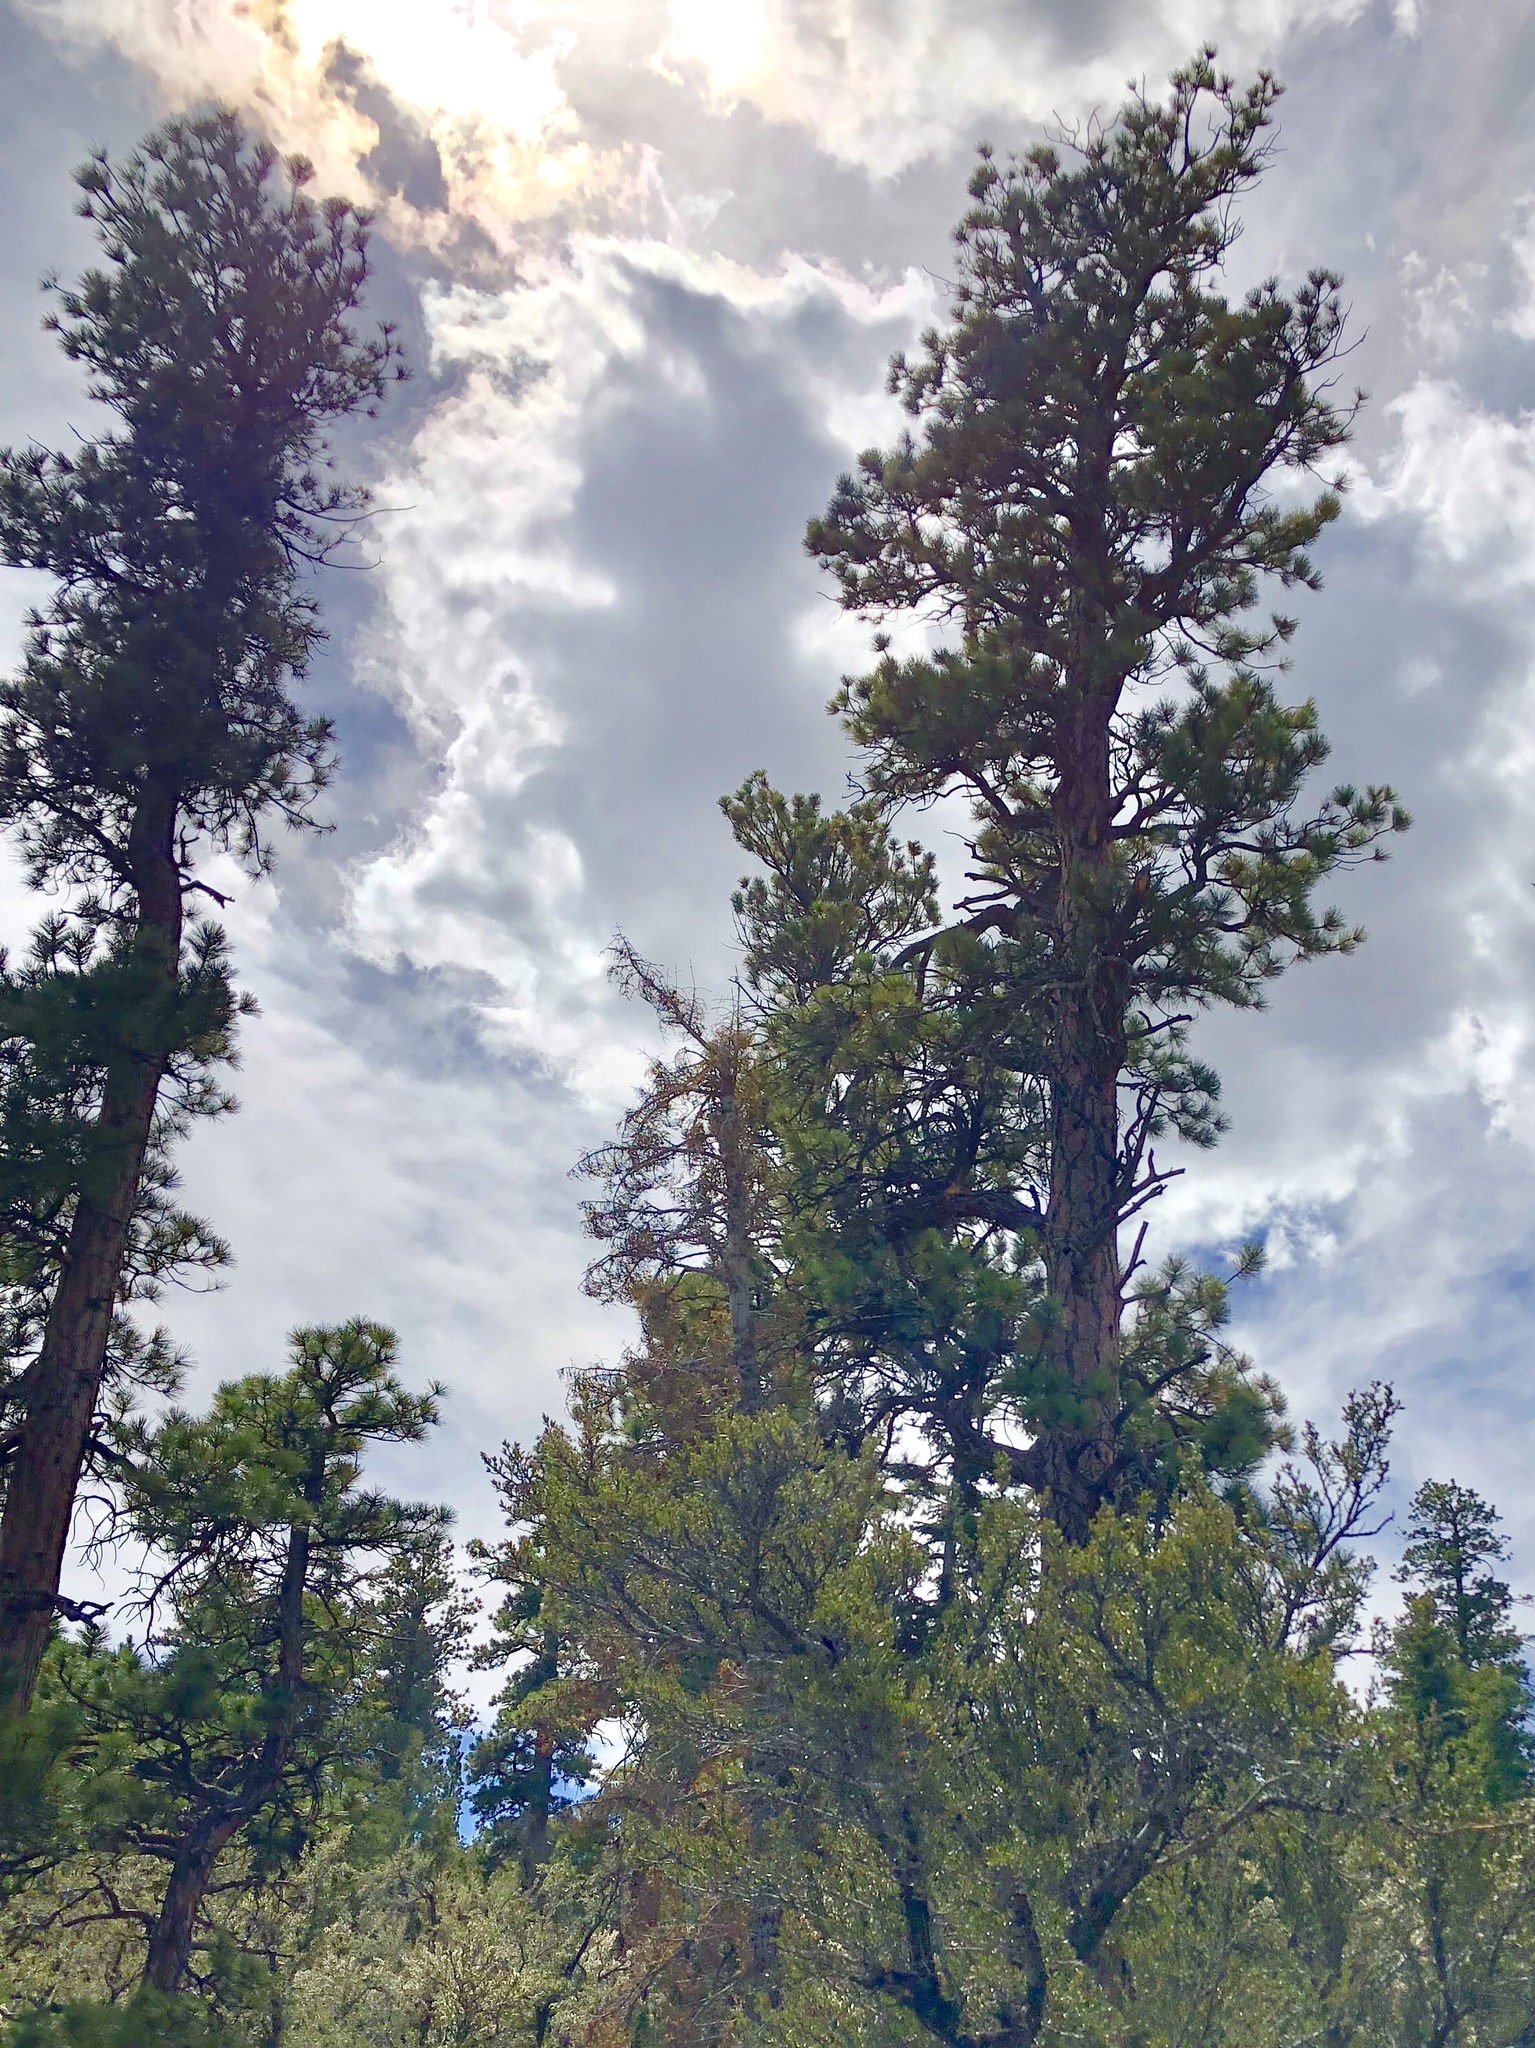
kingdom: Plantae
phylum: Tracheophyta
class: Pinopsida
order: Pinales
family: Pinaceae
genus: Pinus
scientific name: Pinus ponderosa
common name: Western yellow-pine
